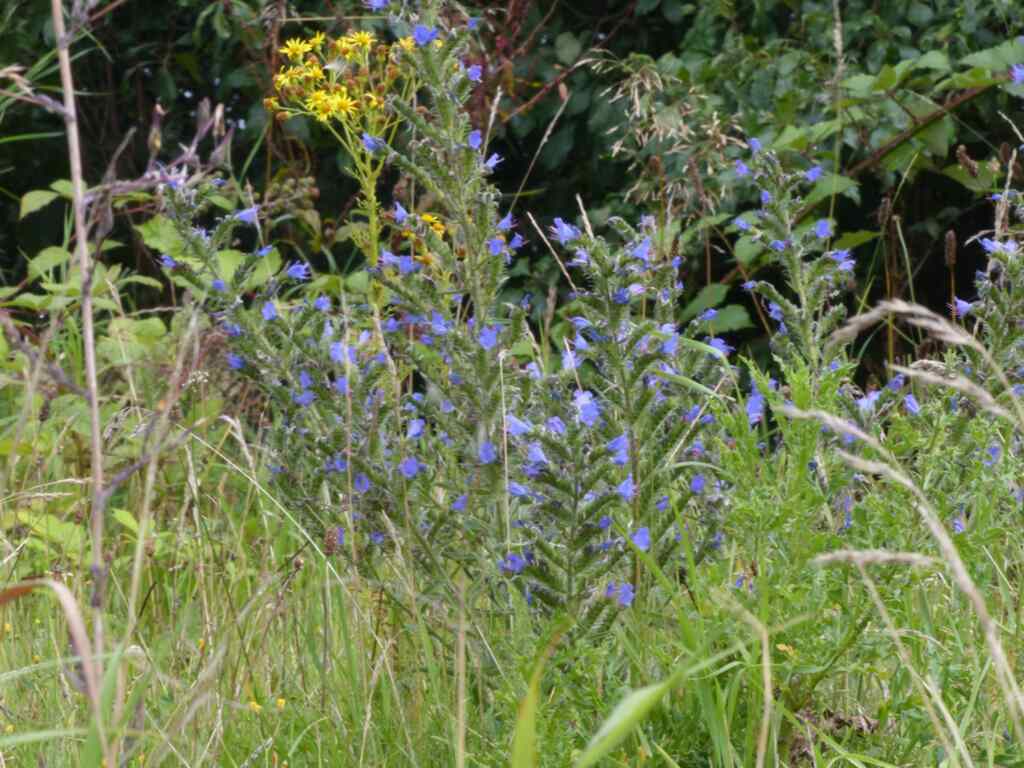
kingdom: Plantae
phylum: Tracheophyta
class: Magnoliopsida
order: Boraginales
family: Boraginaceae
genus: Echium
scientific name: Echium vulgare
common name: Common viper's bugloss
